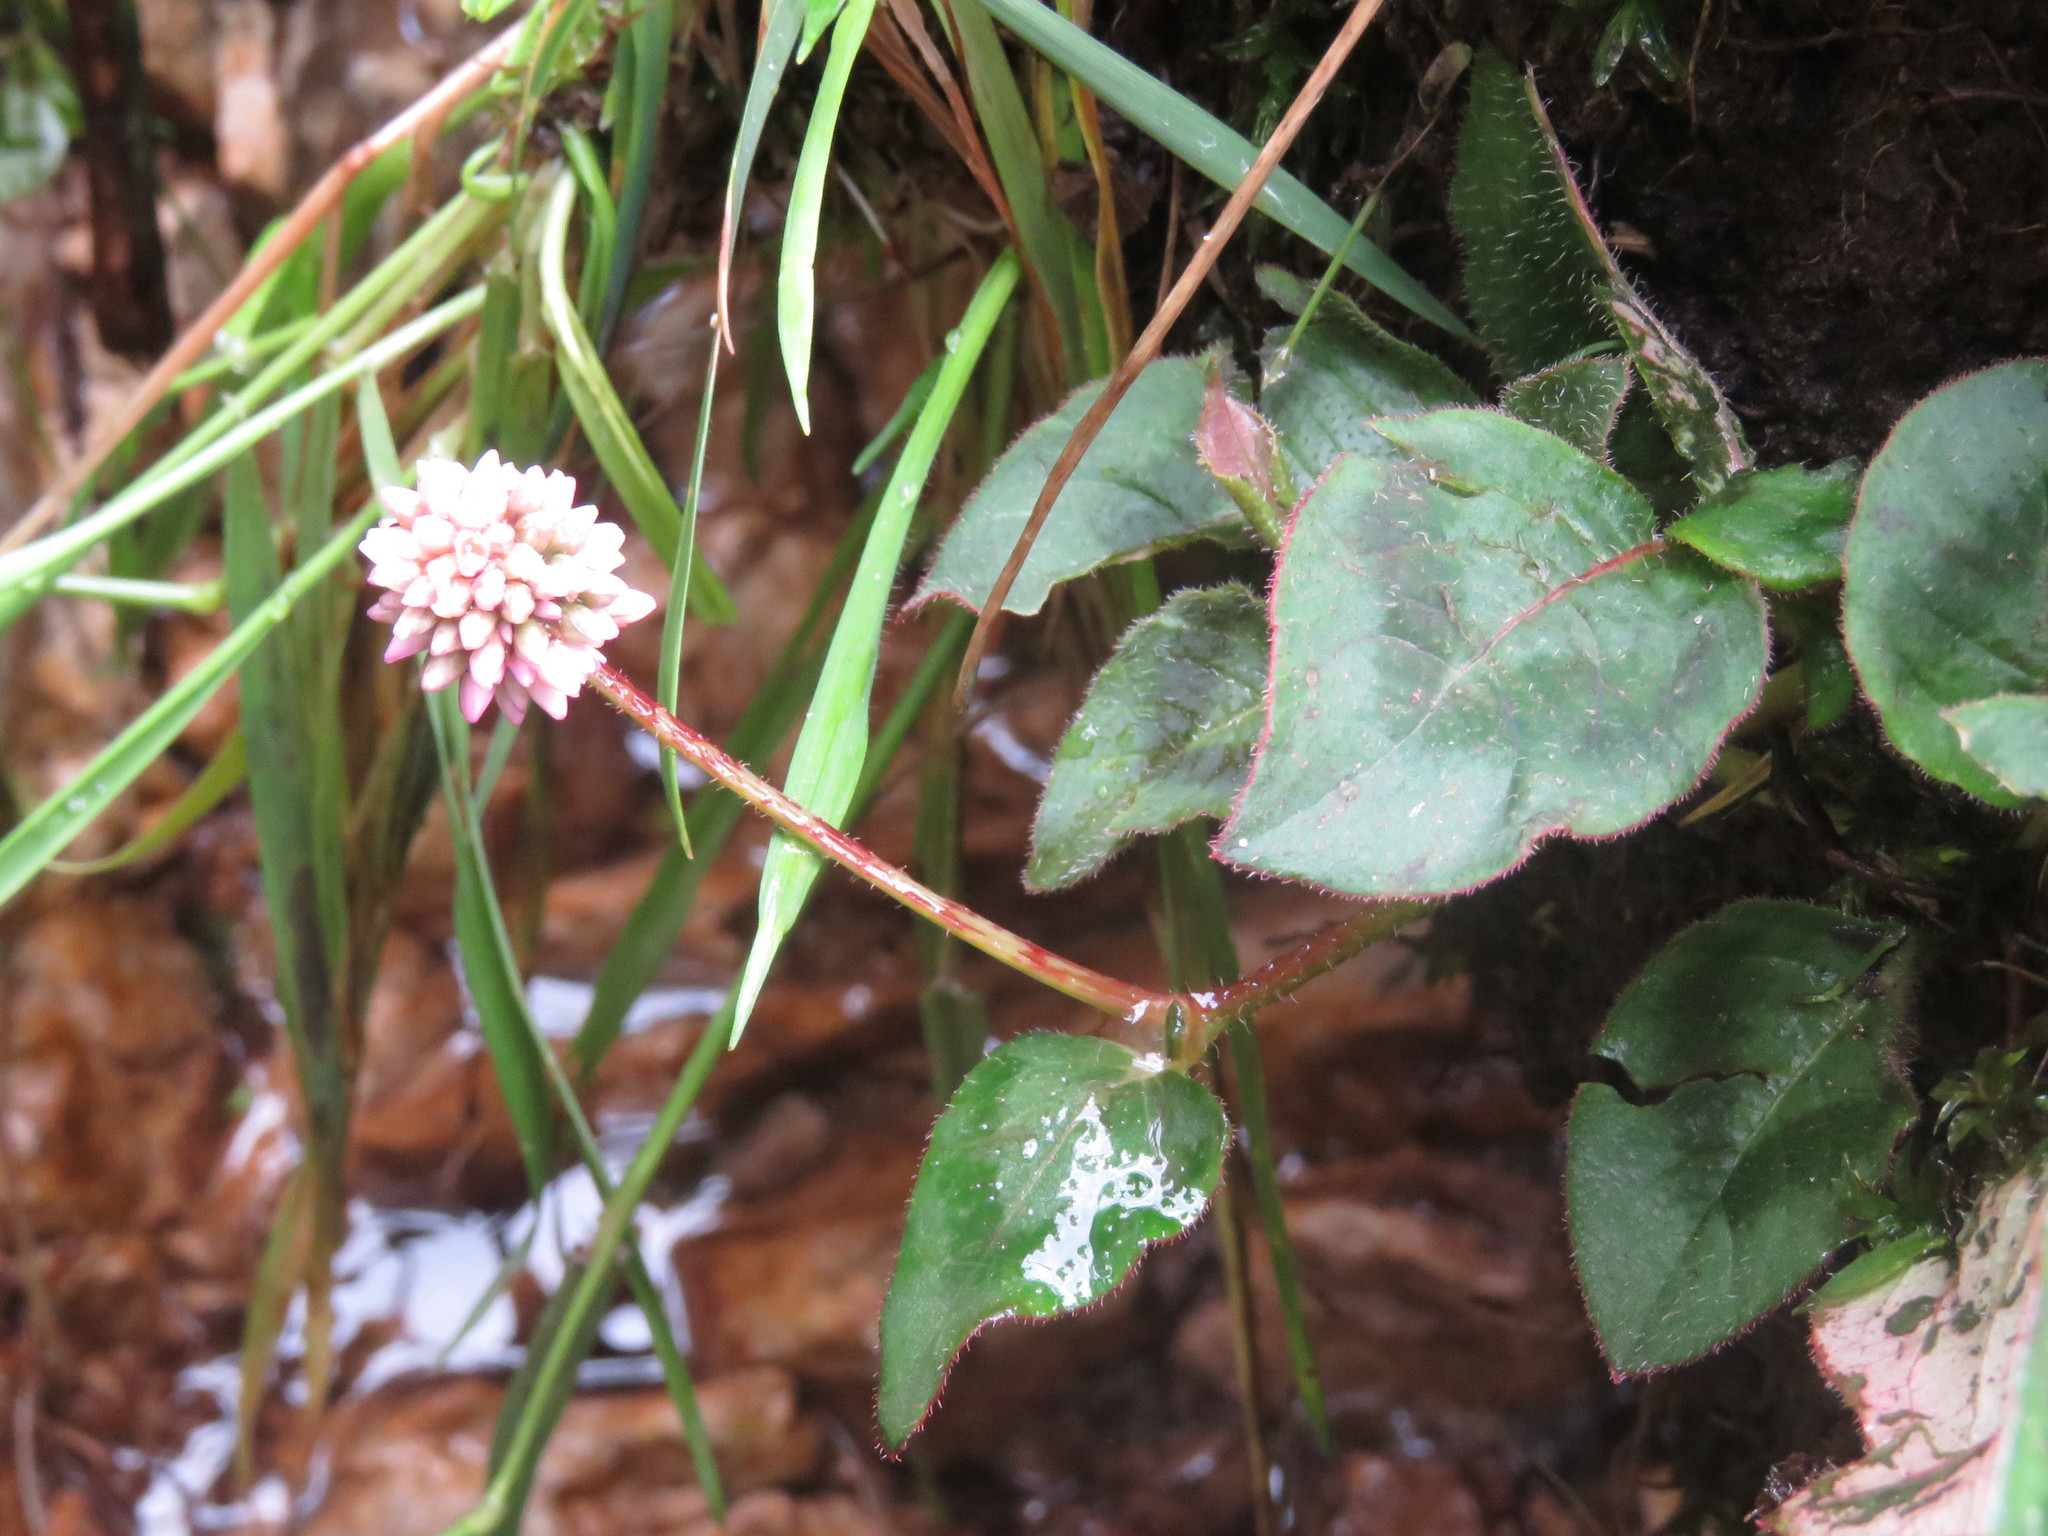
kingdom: Plantae
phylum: Tracheophyta
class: Magnoliopsida
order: Caryophyllales
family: Polygonaceae
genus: Persicaria
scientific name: Persicaria capitata
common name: Pinkhead smartweed
